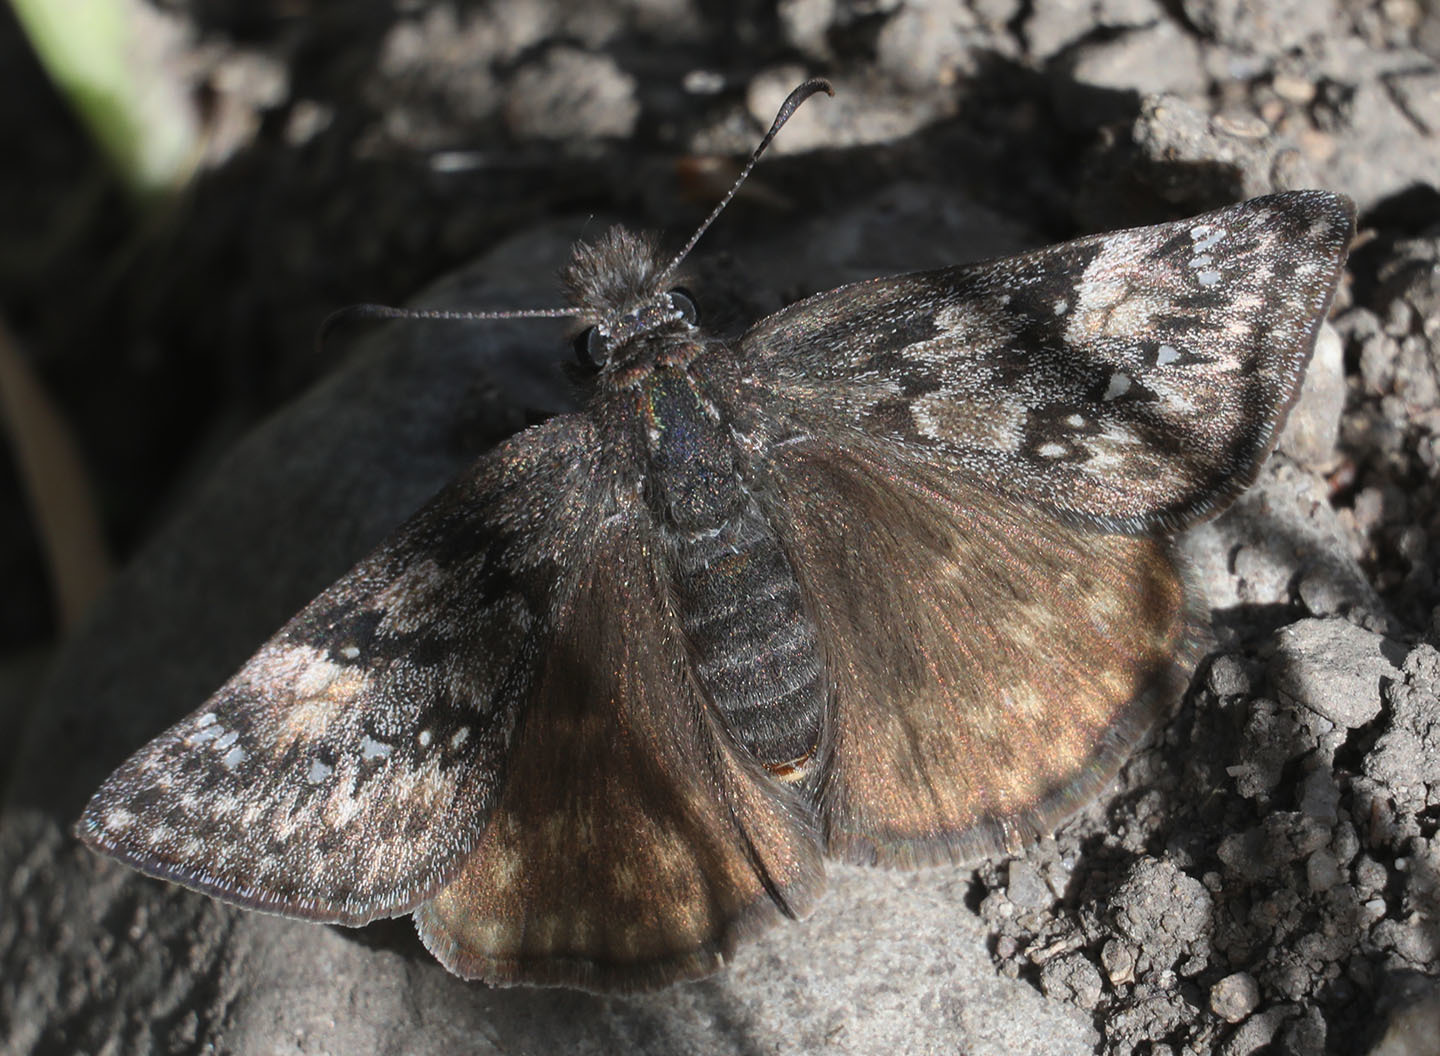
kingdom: Animalia
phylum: Arthropoda
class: Insecta
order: Lepidoptera
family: Hesperiidae
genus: Erynnis
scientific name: Erynnis propertius
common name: Propertius duskywing
